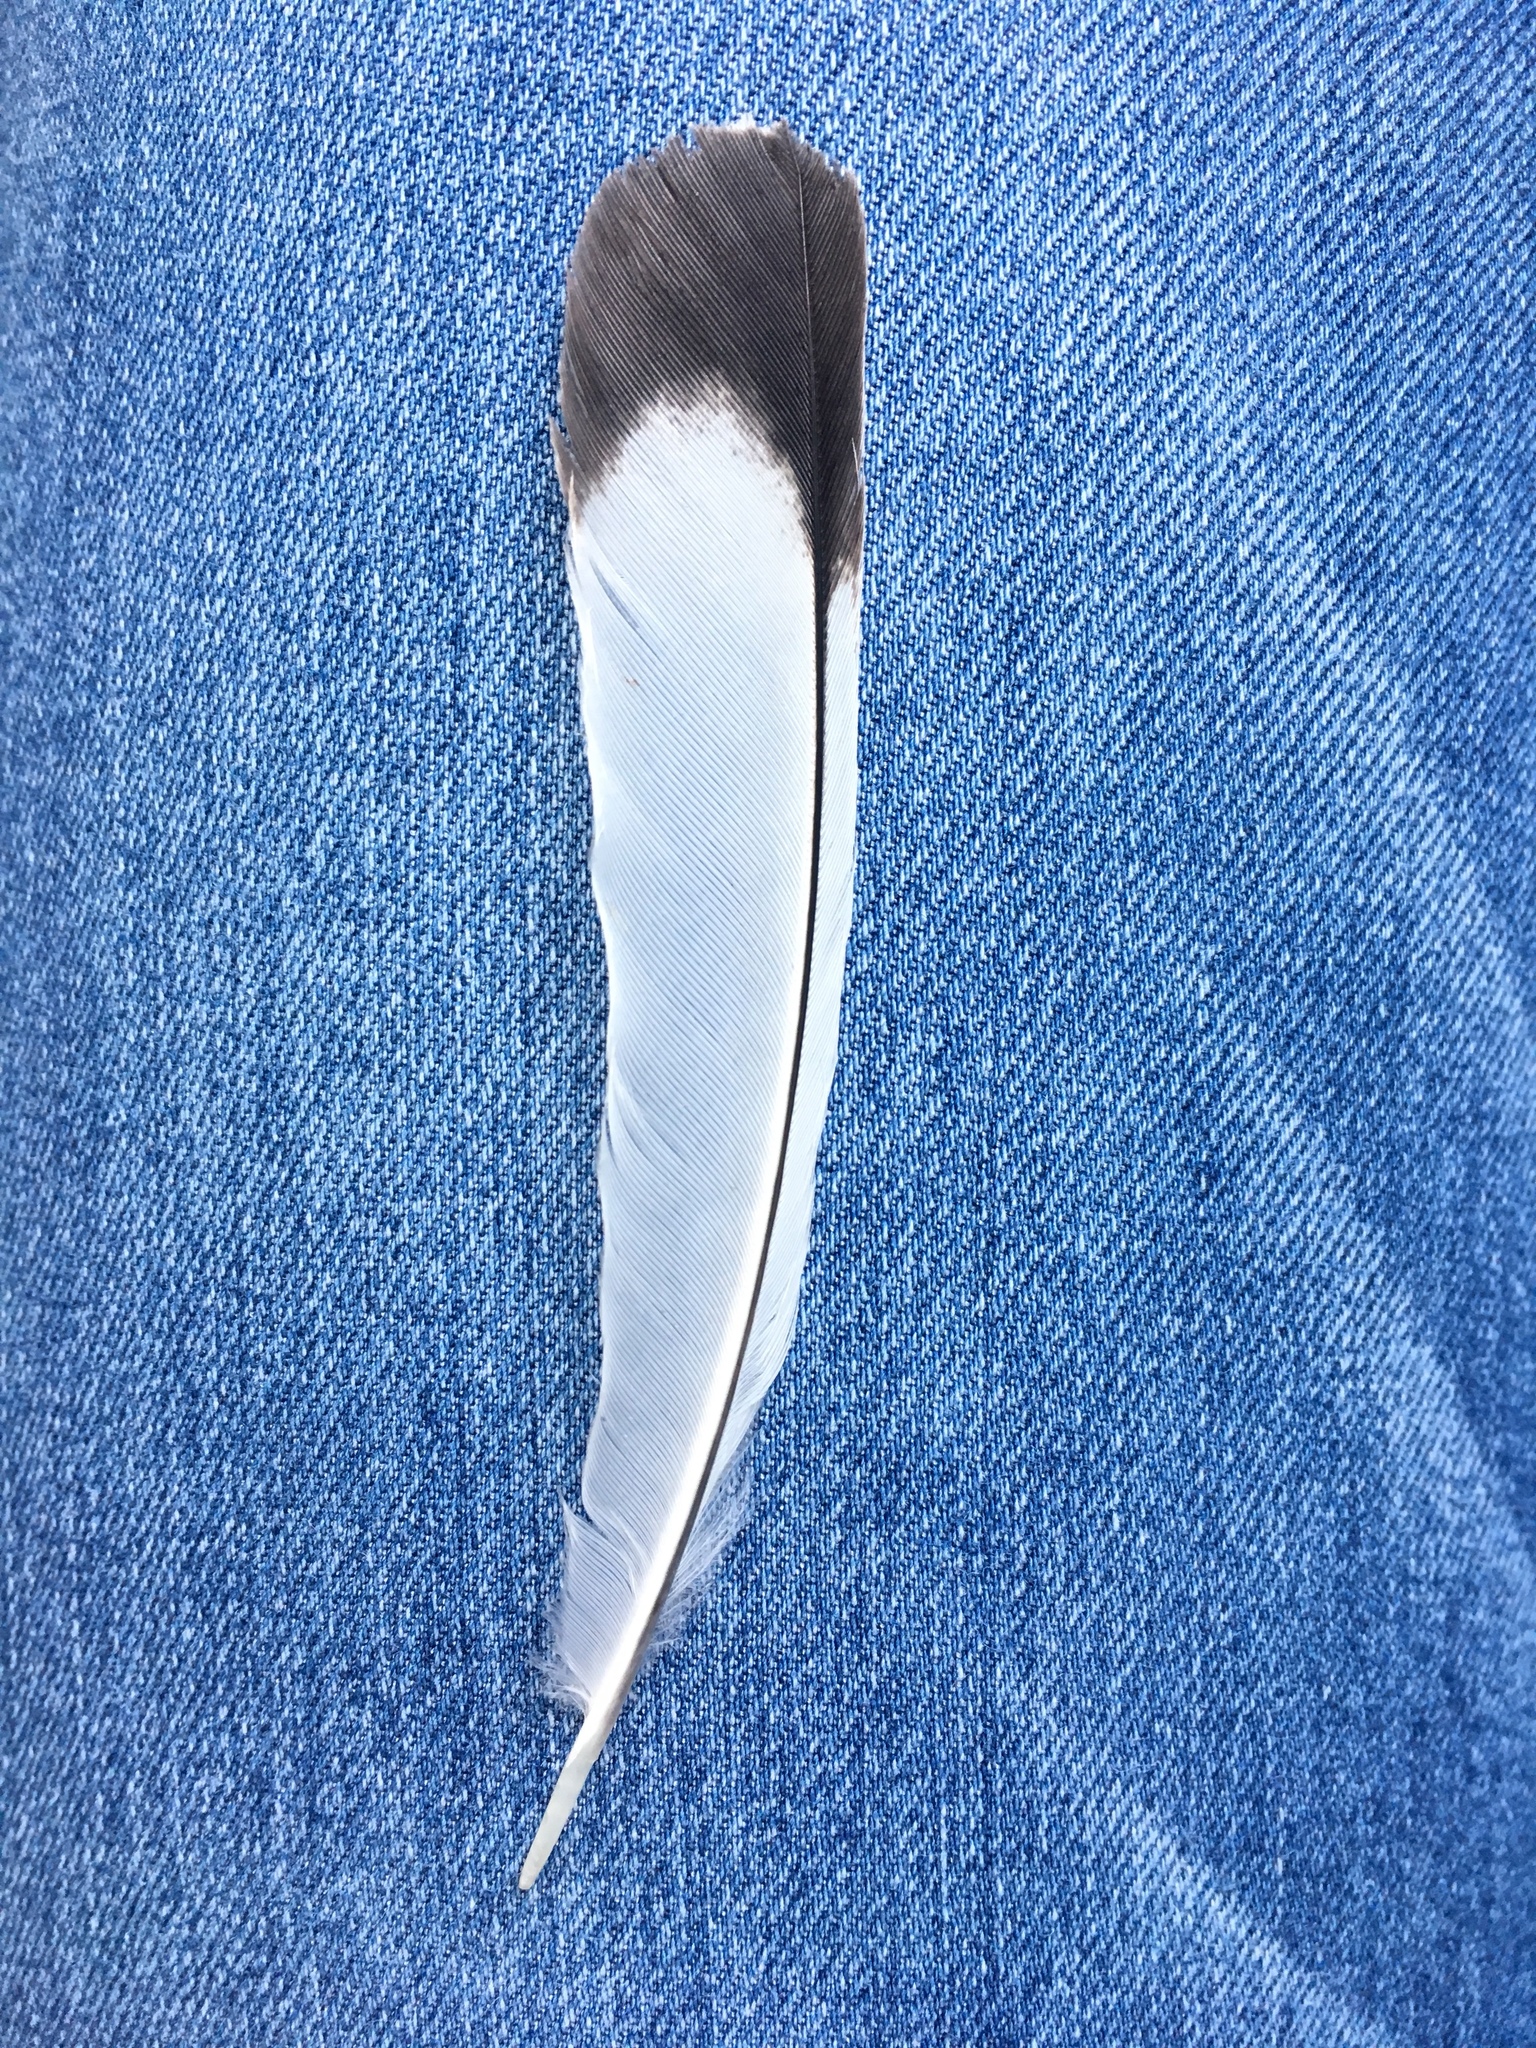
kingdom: Animalia
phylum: Chordata
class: Aves
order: Passeriformes
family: Mimidae
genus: Mimus
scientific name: Mimus polyglottos
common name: Northern mockingbird
